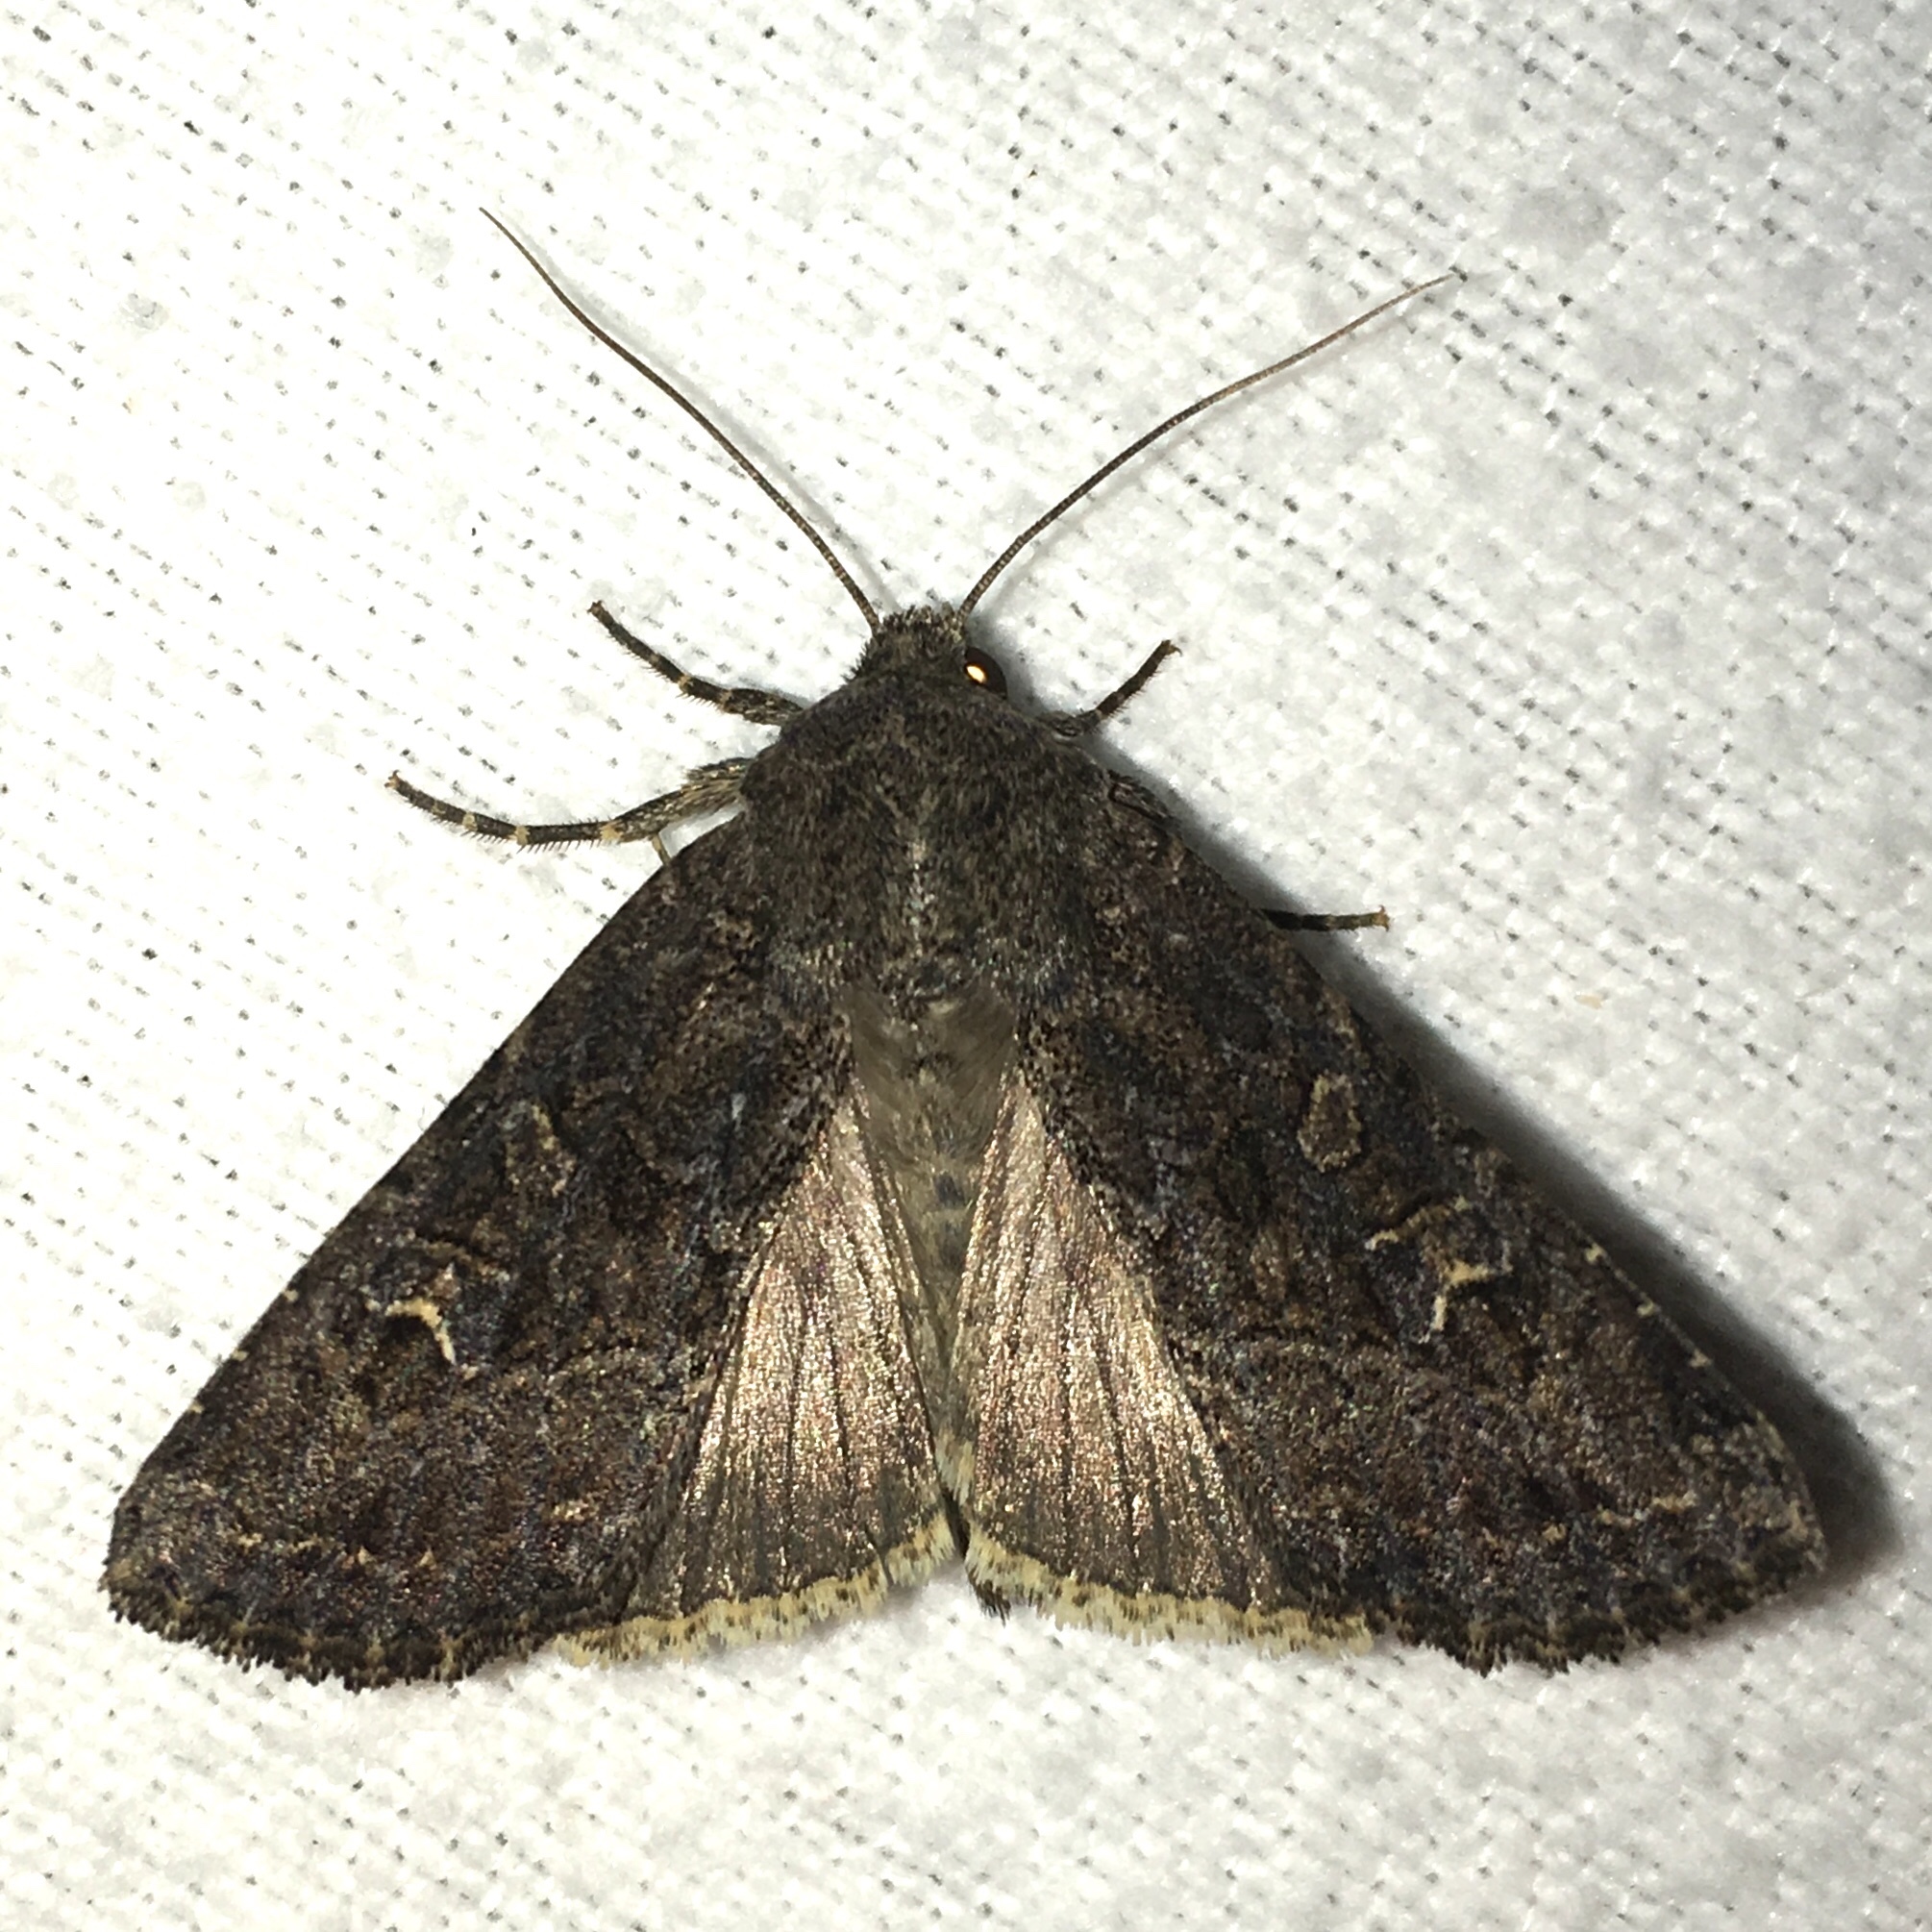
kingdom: Animalia
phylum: Arthropoda
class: Insecta
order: Lepidoptera
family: Noctuidae
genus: Apamea
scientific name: Apamea devastator
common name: Glassy cutworm
